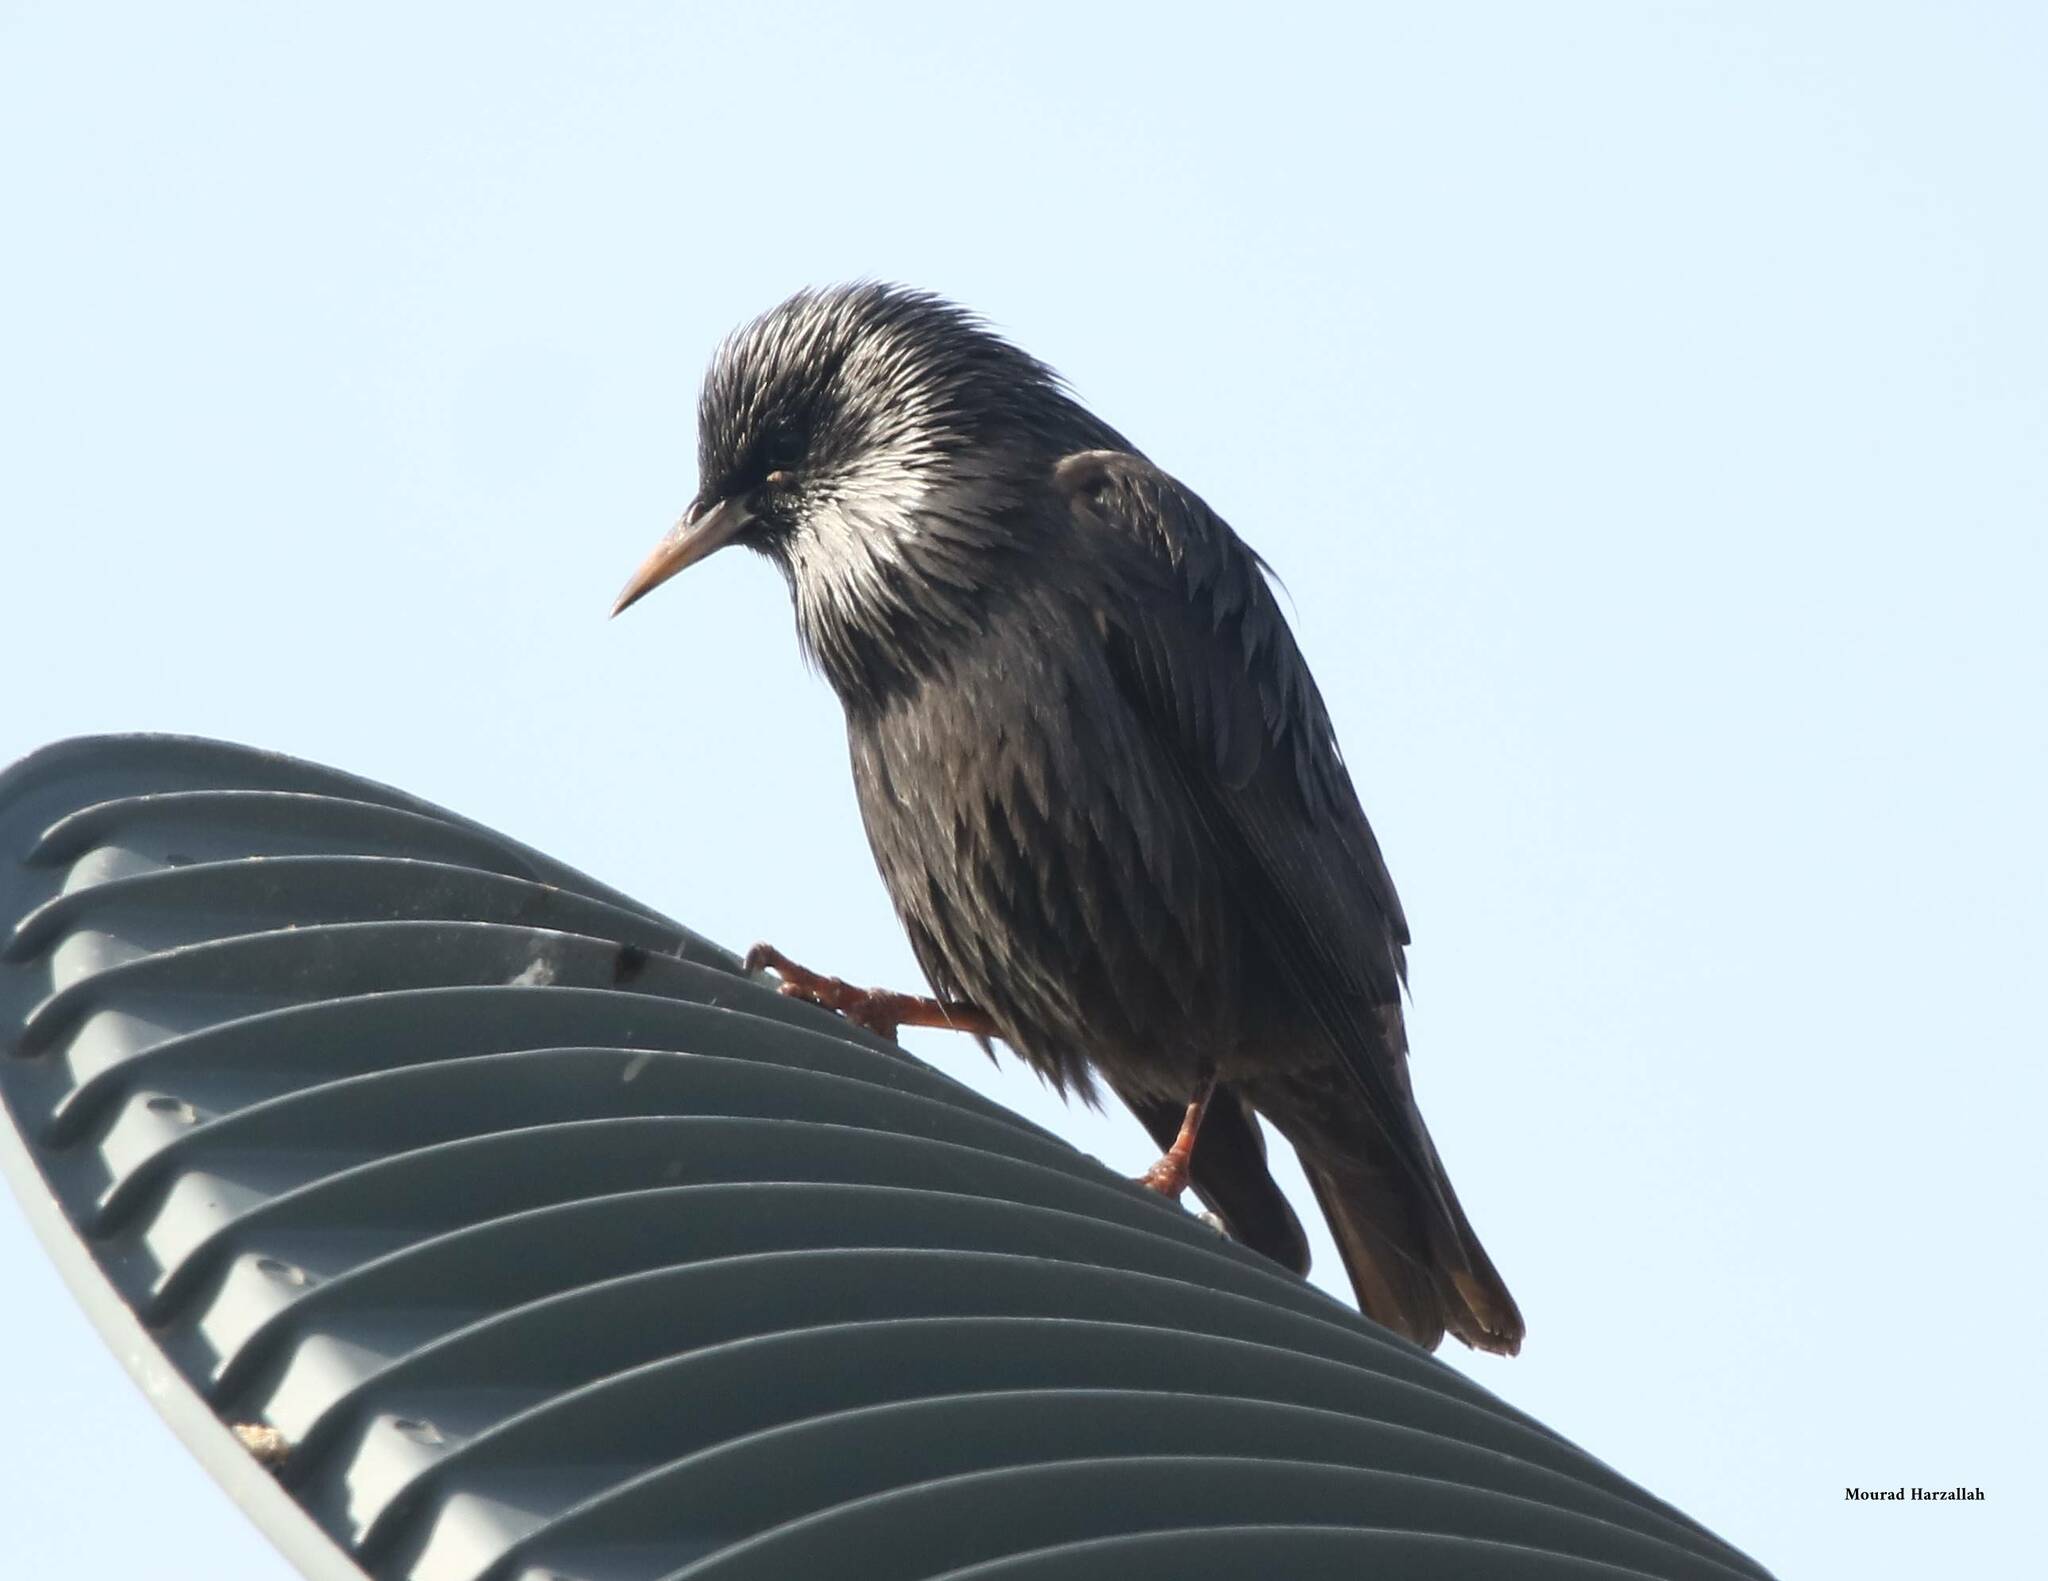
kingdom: Animalia
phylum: Chordata
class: Aves
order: Passeriformes
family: Sturnidae
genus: Sturnus
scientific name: Sturnus unicolor
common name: Spotless starling
